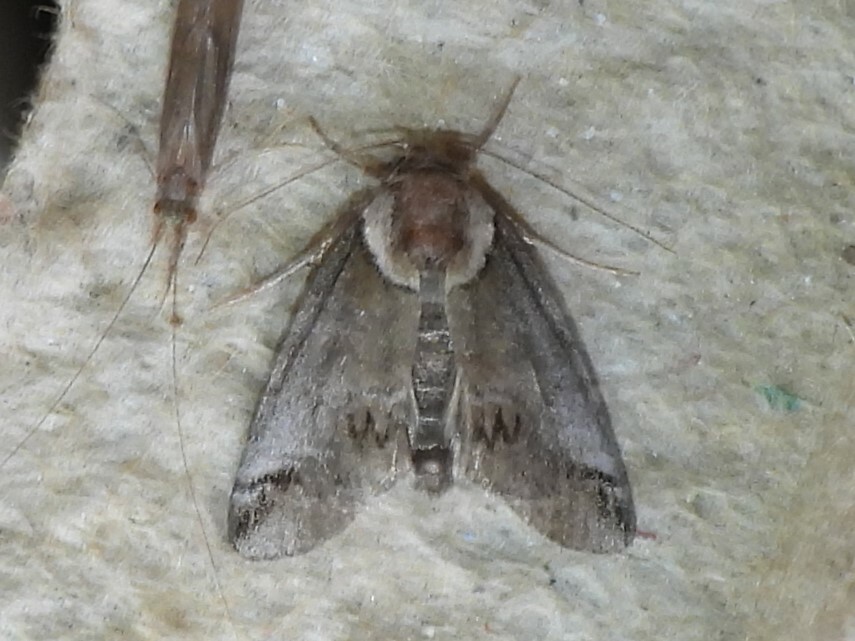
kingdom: Animalia
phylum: Arthropoda
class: Insecta
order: Lepidoptera
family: Nolidae
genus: Baileya
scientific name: Baileya australis
